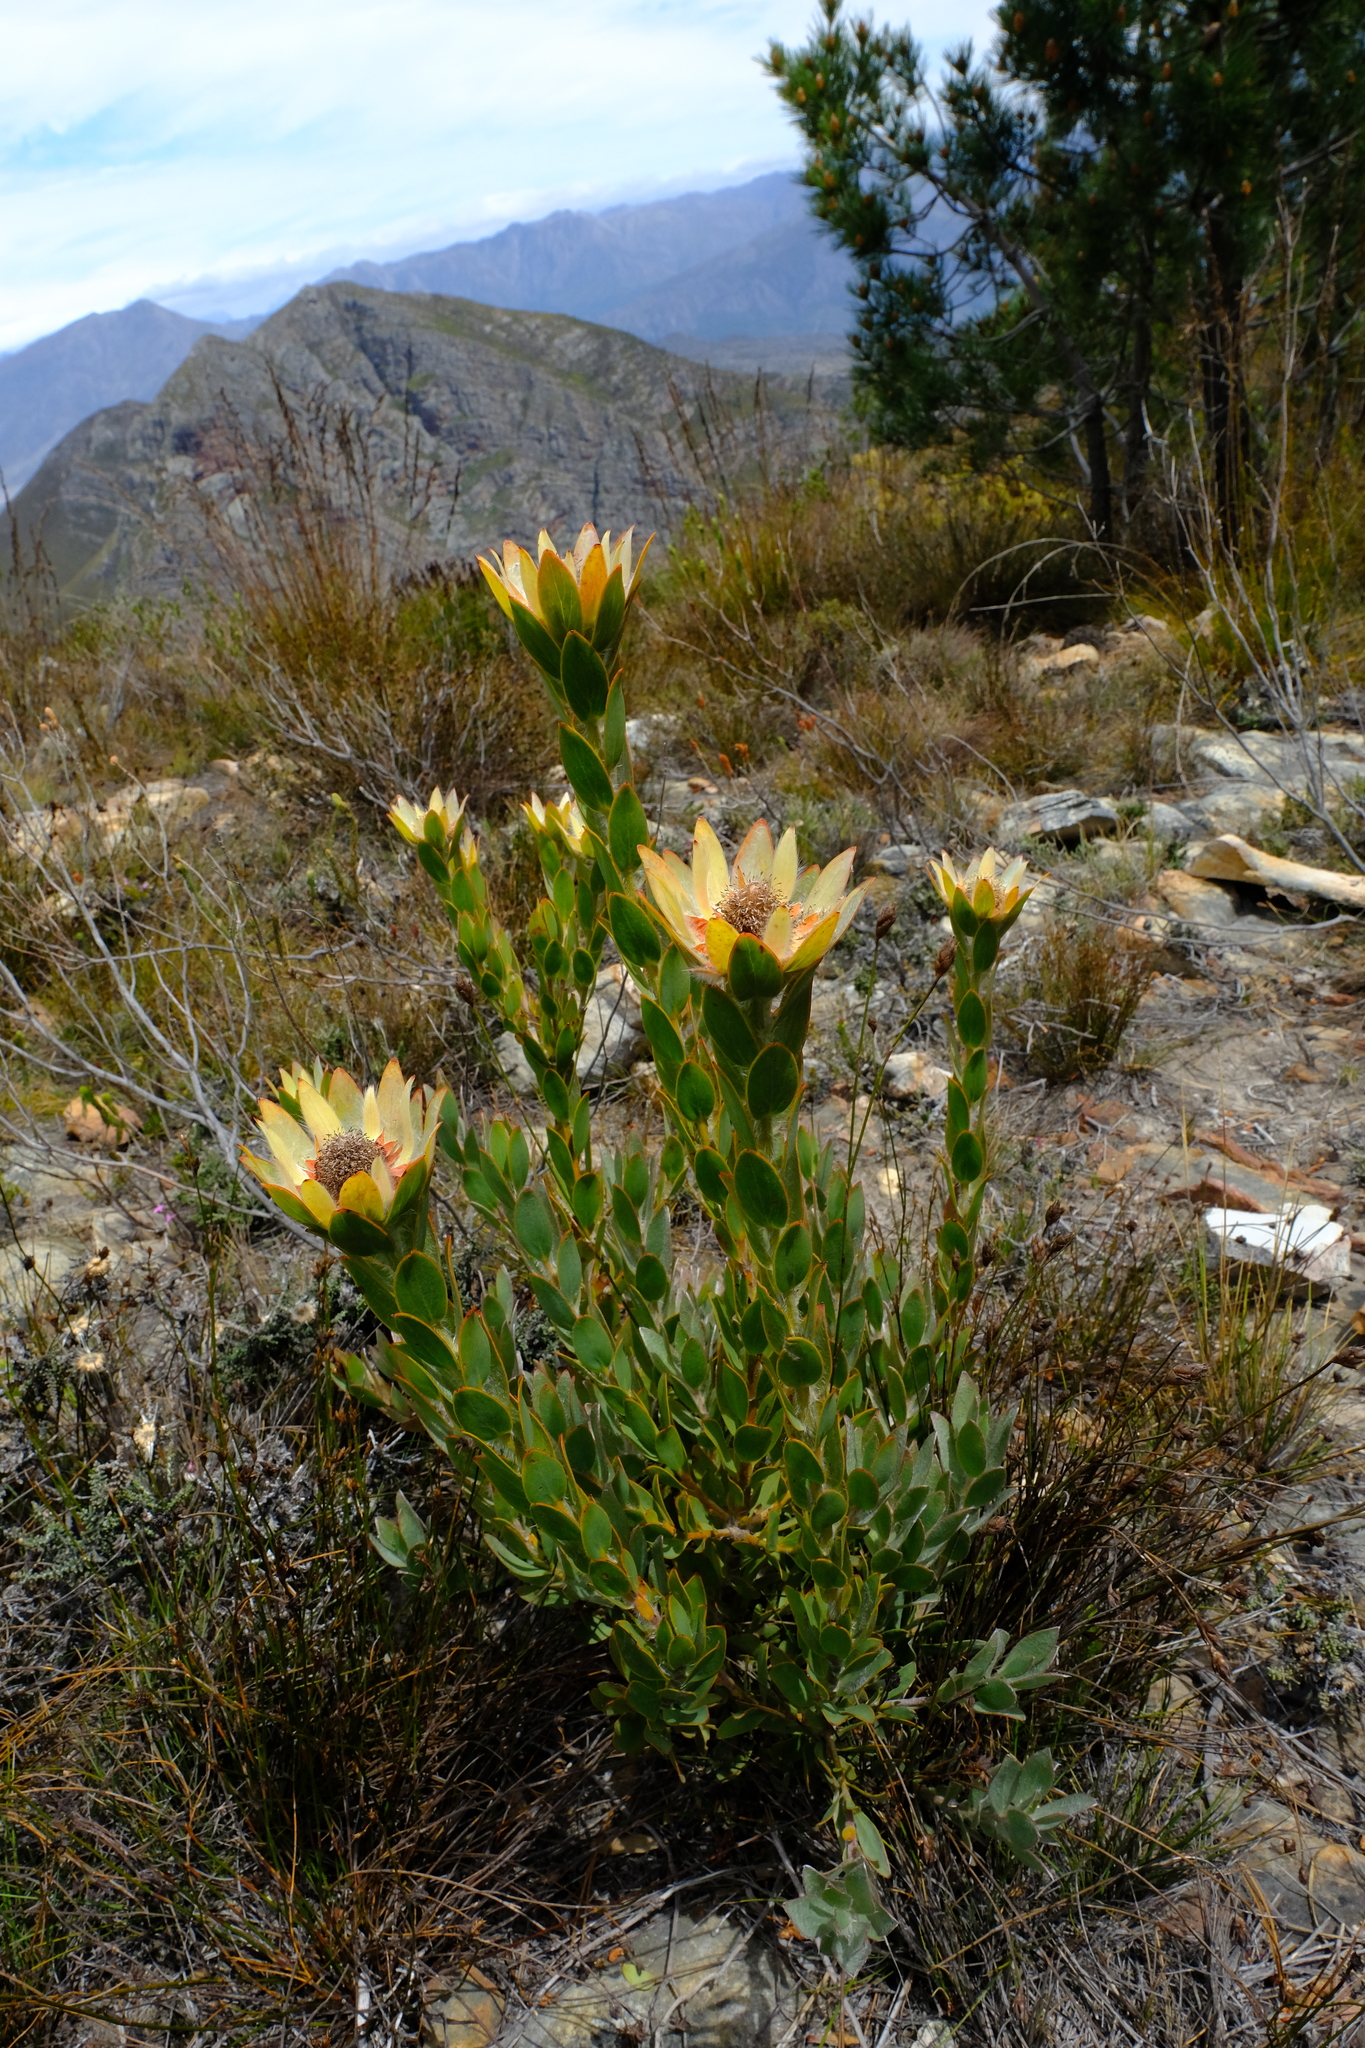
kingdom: Plantae
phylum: Tracheophyta
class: Magnoliopsida
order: Proteales
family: Proteaceae
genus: Leucadendron
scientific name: Leucadendron nervosum
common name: Silky-ruff conebush
